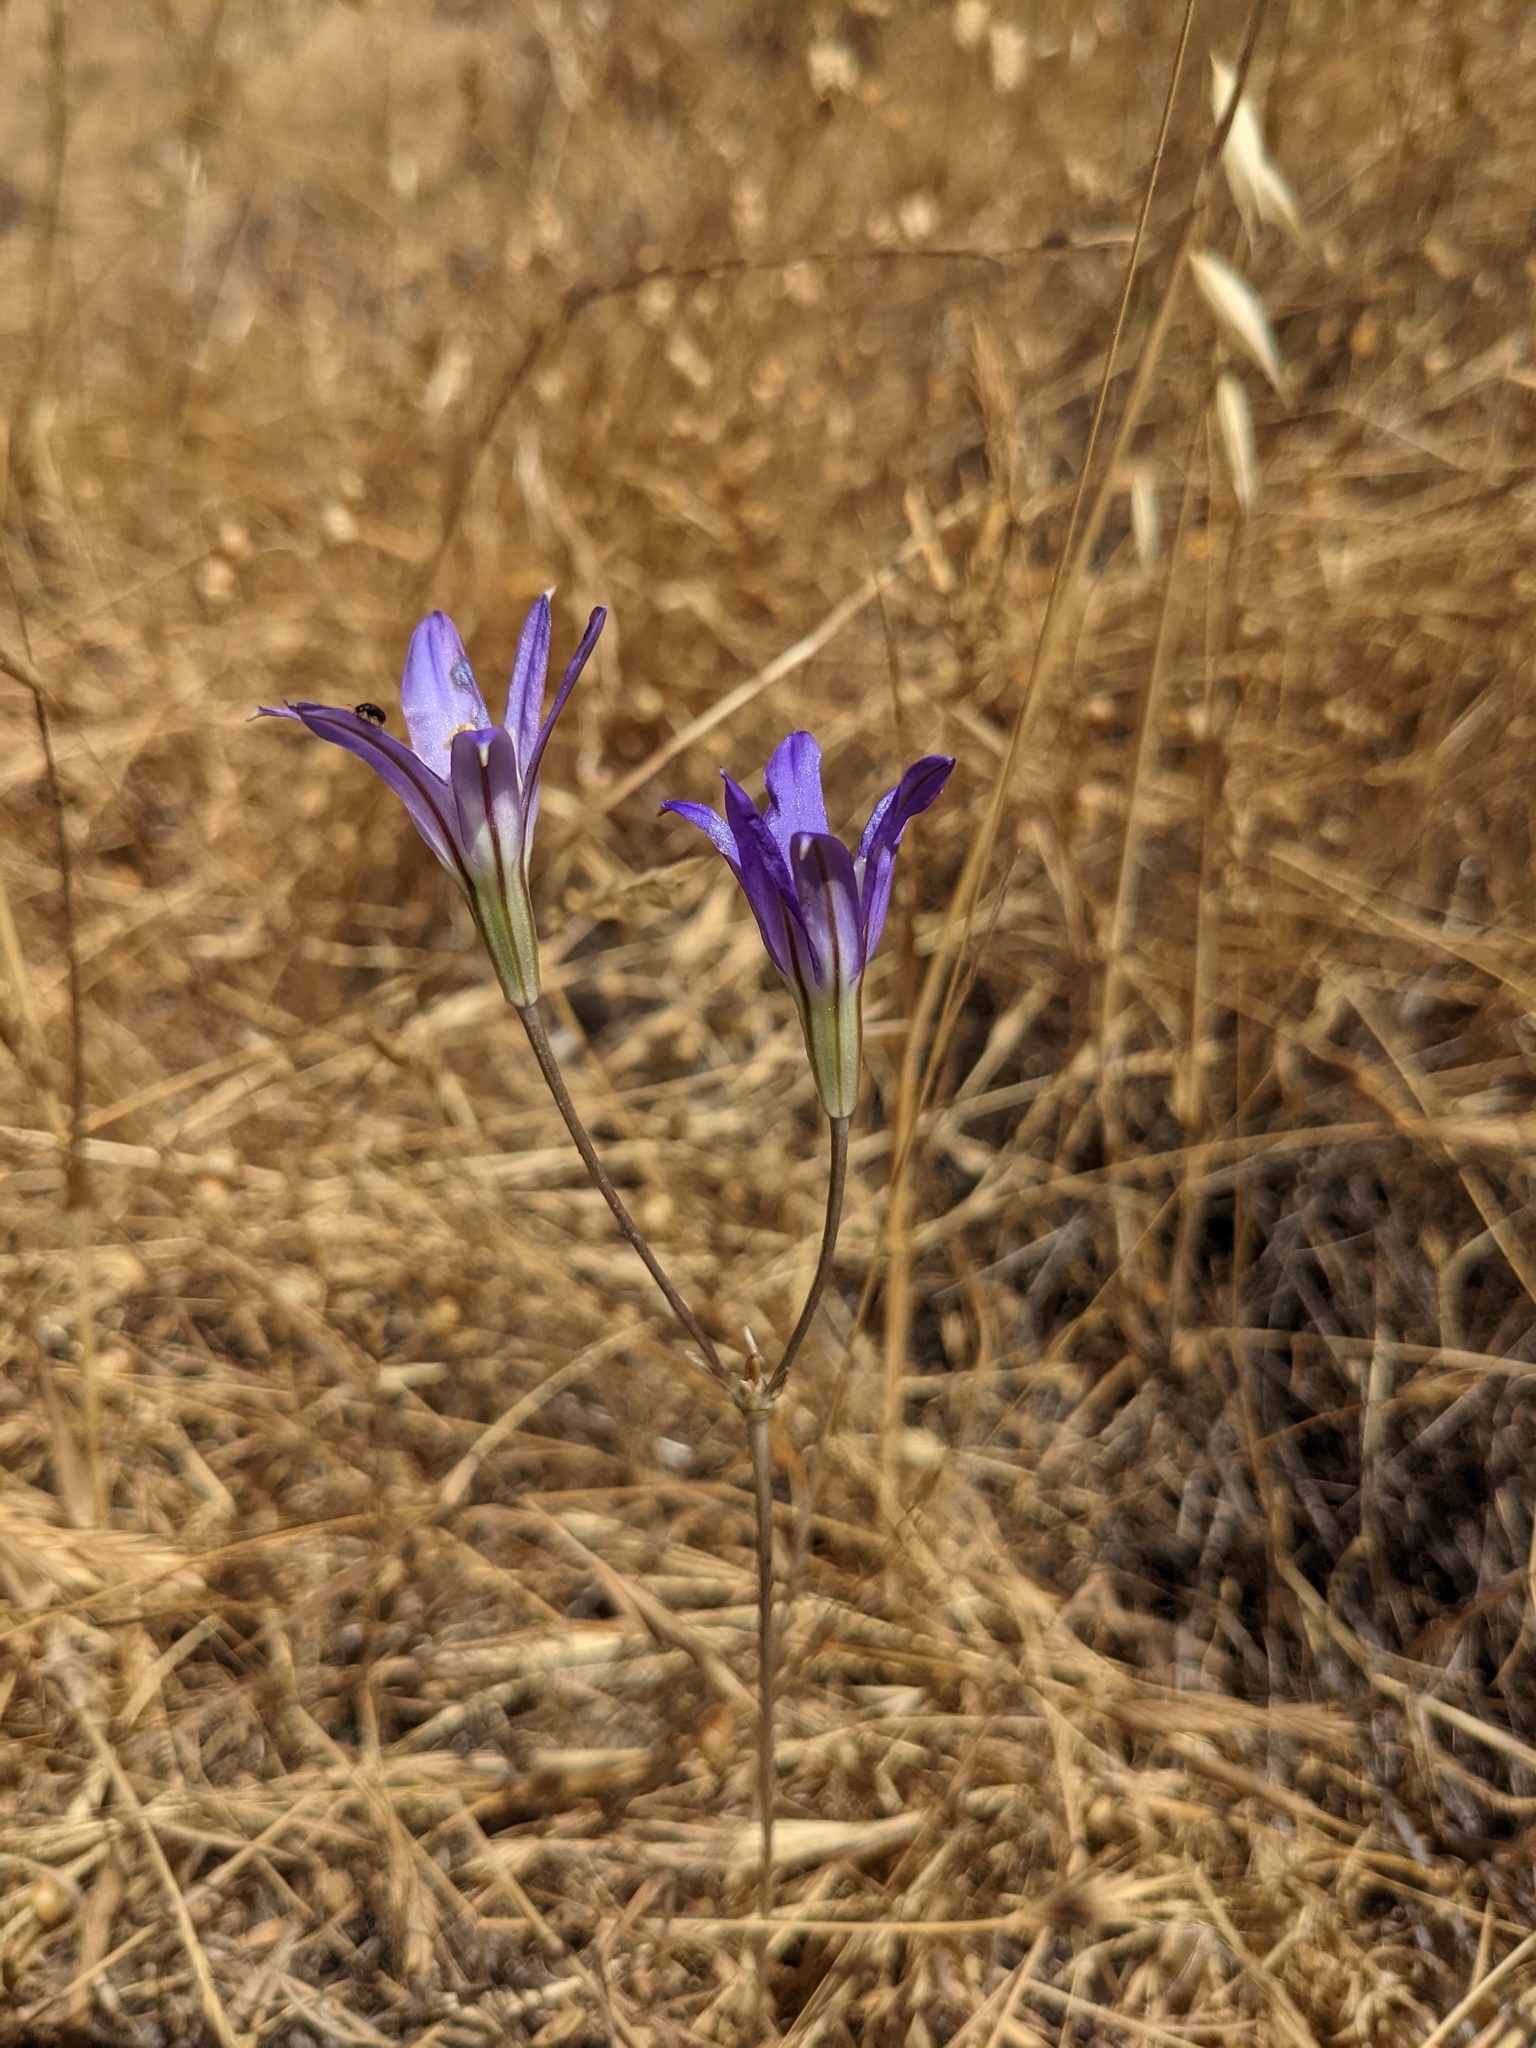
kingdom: Plantae
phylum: Tracheophyta
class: Liliopsida
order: Asparagales
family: Asparagaceae
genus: Brodiaea
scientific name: Brodiaea elegans
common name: Elegant cluster-lily
